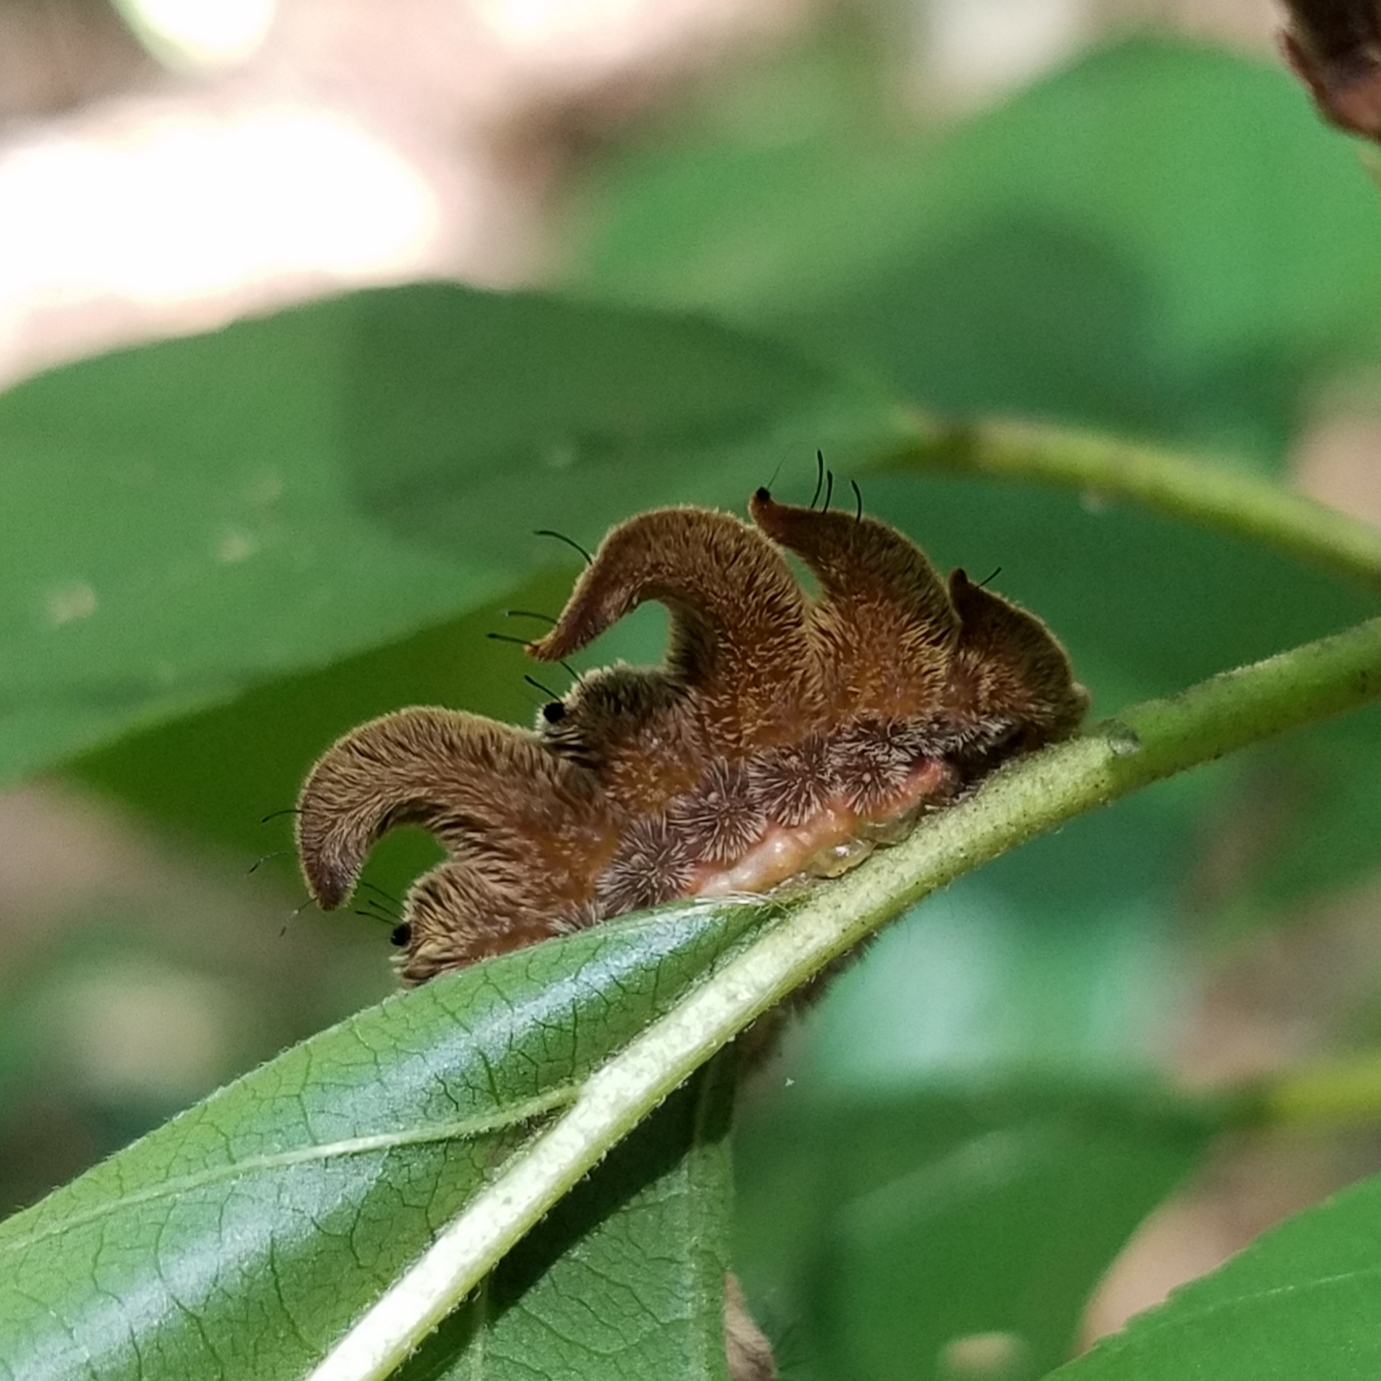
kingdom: Animalia
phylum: Arthropoda
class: Insecta
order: Lepidoptera
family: Limacodidae
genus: Phobetron
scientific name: Phobetron pithecium
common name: Hag moth
